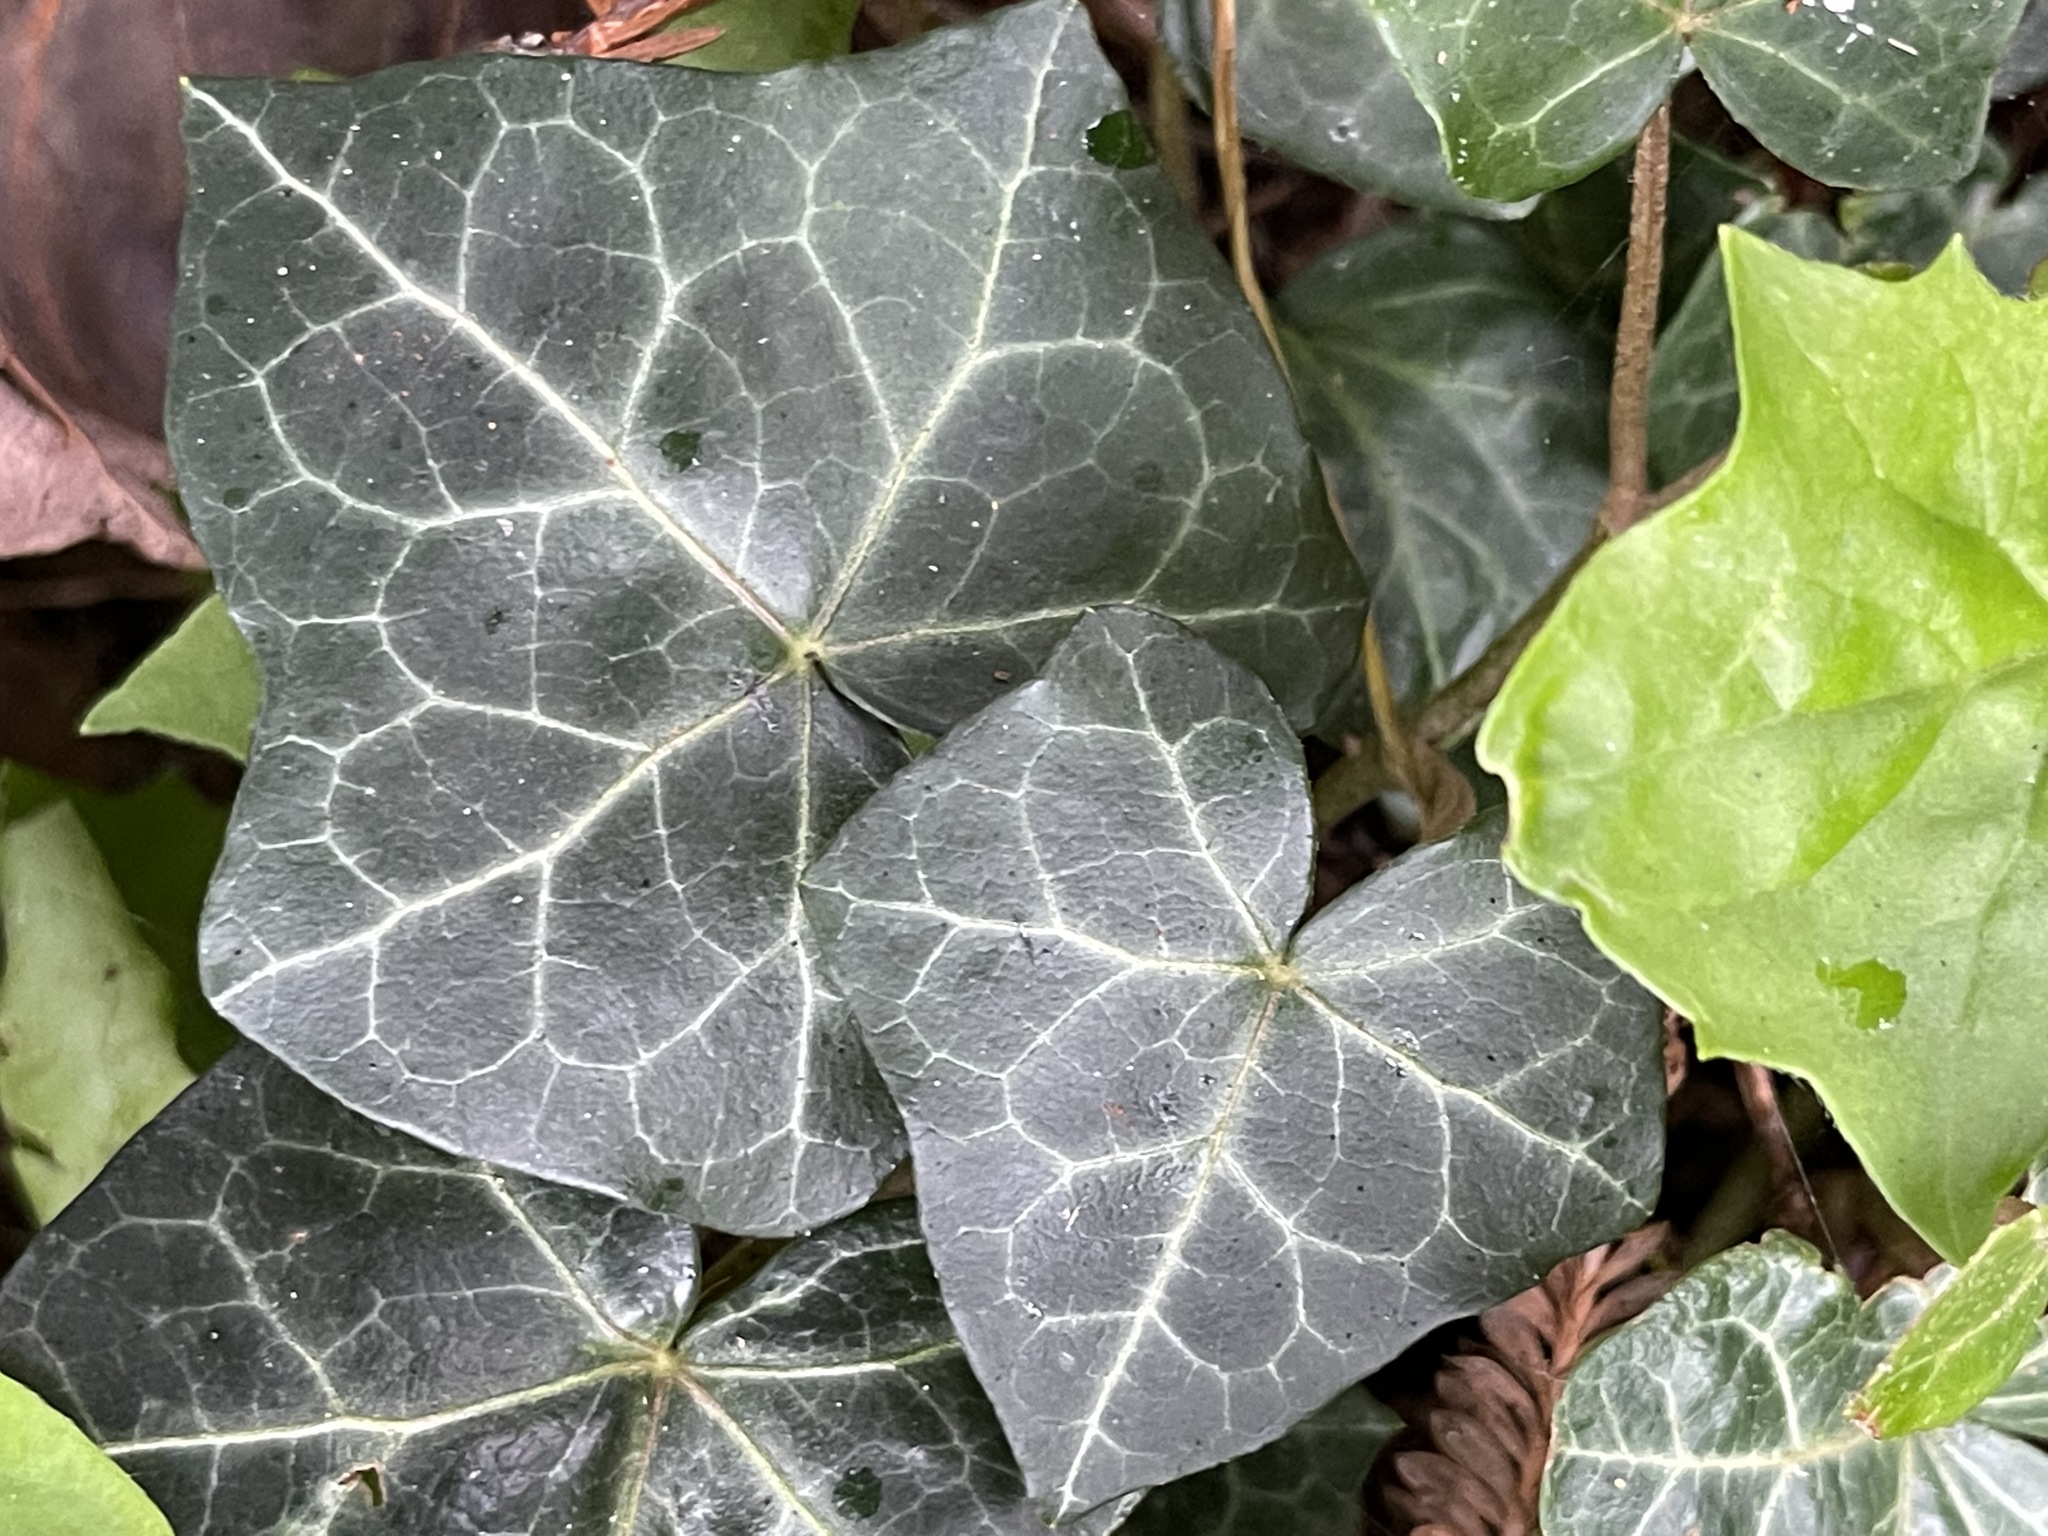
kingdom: Plantae
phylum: Tracheophyta
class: Magnoliopsida
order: Apiales
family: Araliaceae
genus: Hedera
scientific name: Hedera helix
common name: Ivy
